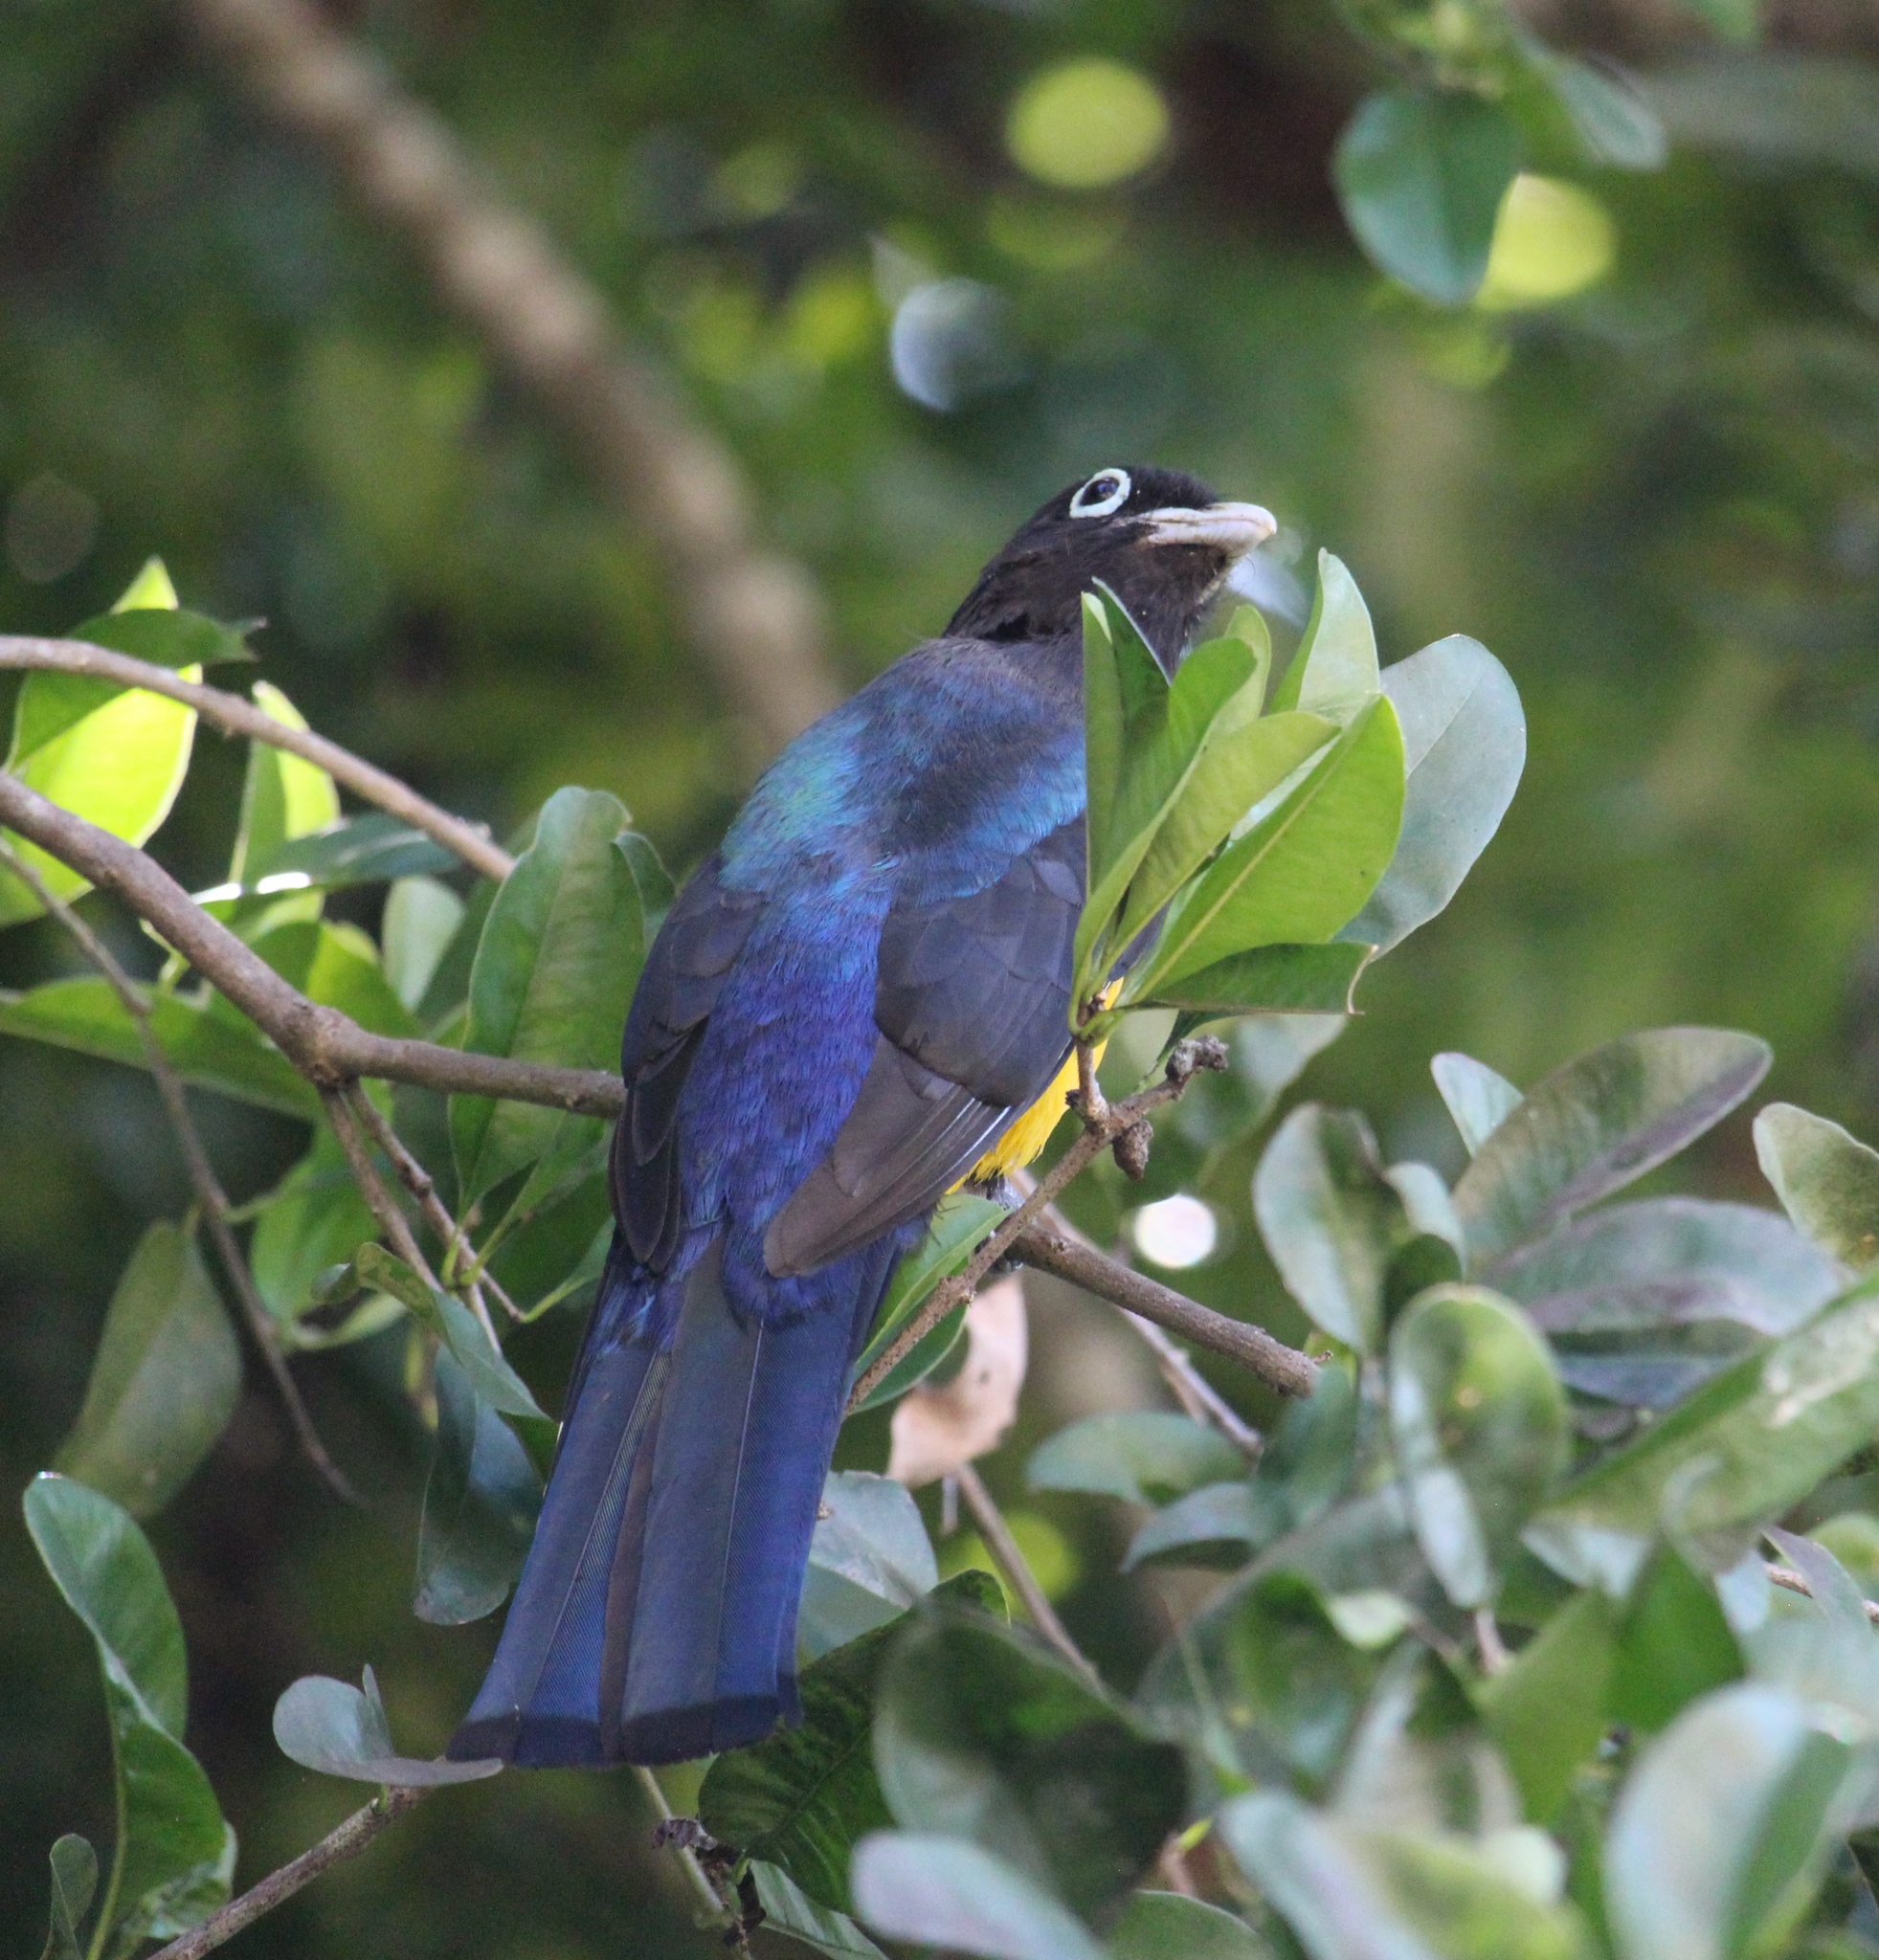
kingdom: Animalia
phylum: Chordata
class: Aves
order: Trogoniformes
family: Trogonidae
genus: Trogon
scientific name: Trogon melanocephalus
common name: Black-headed trogon
